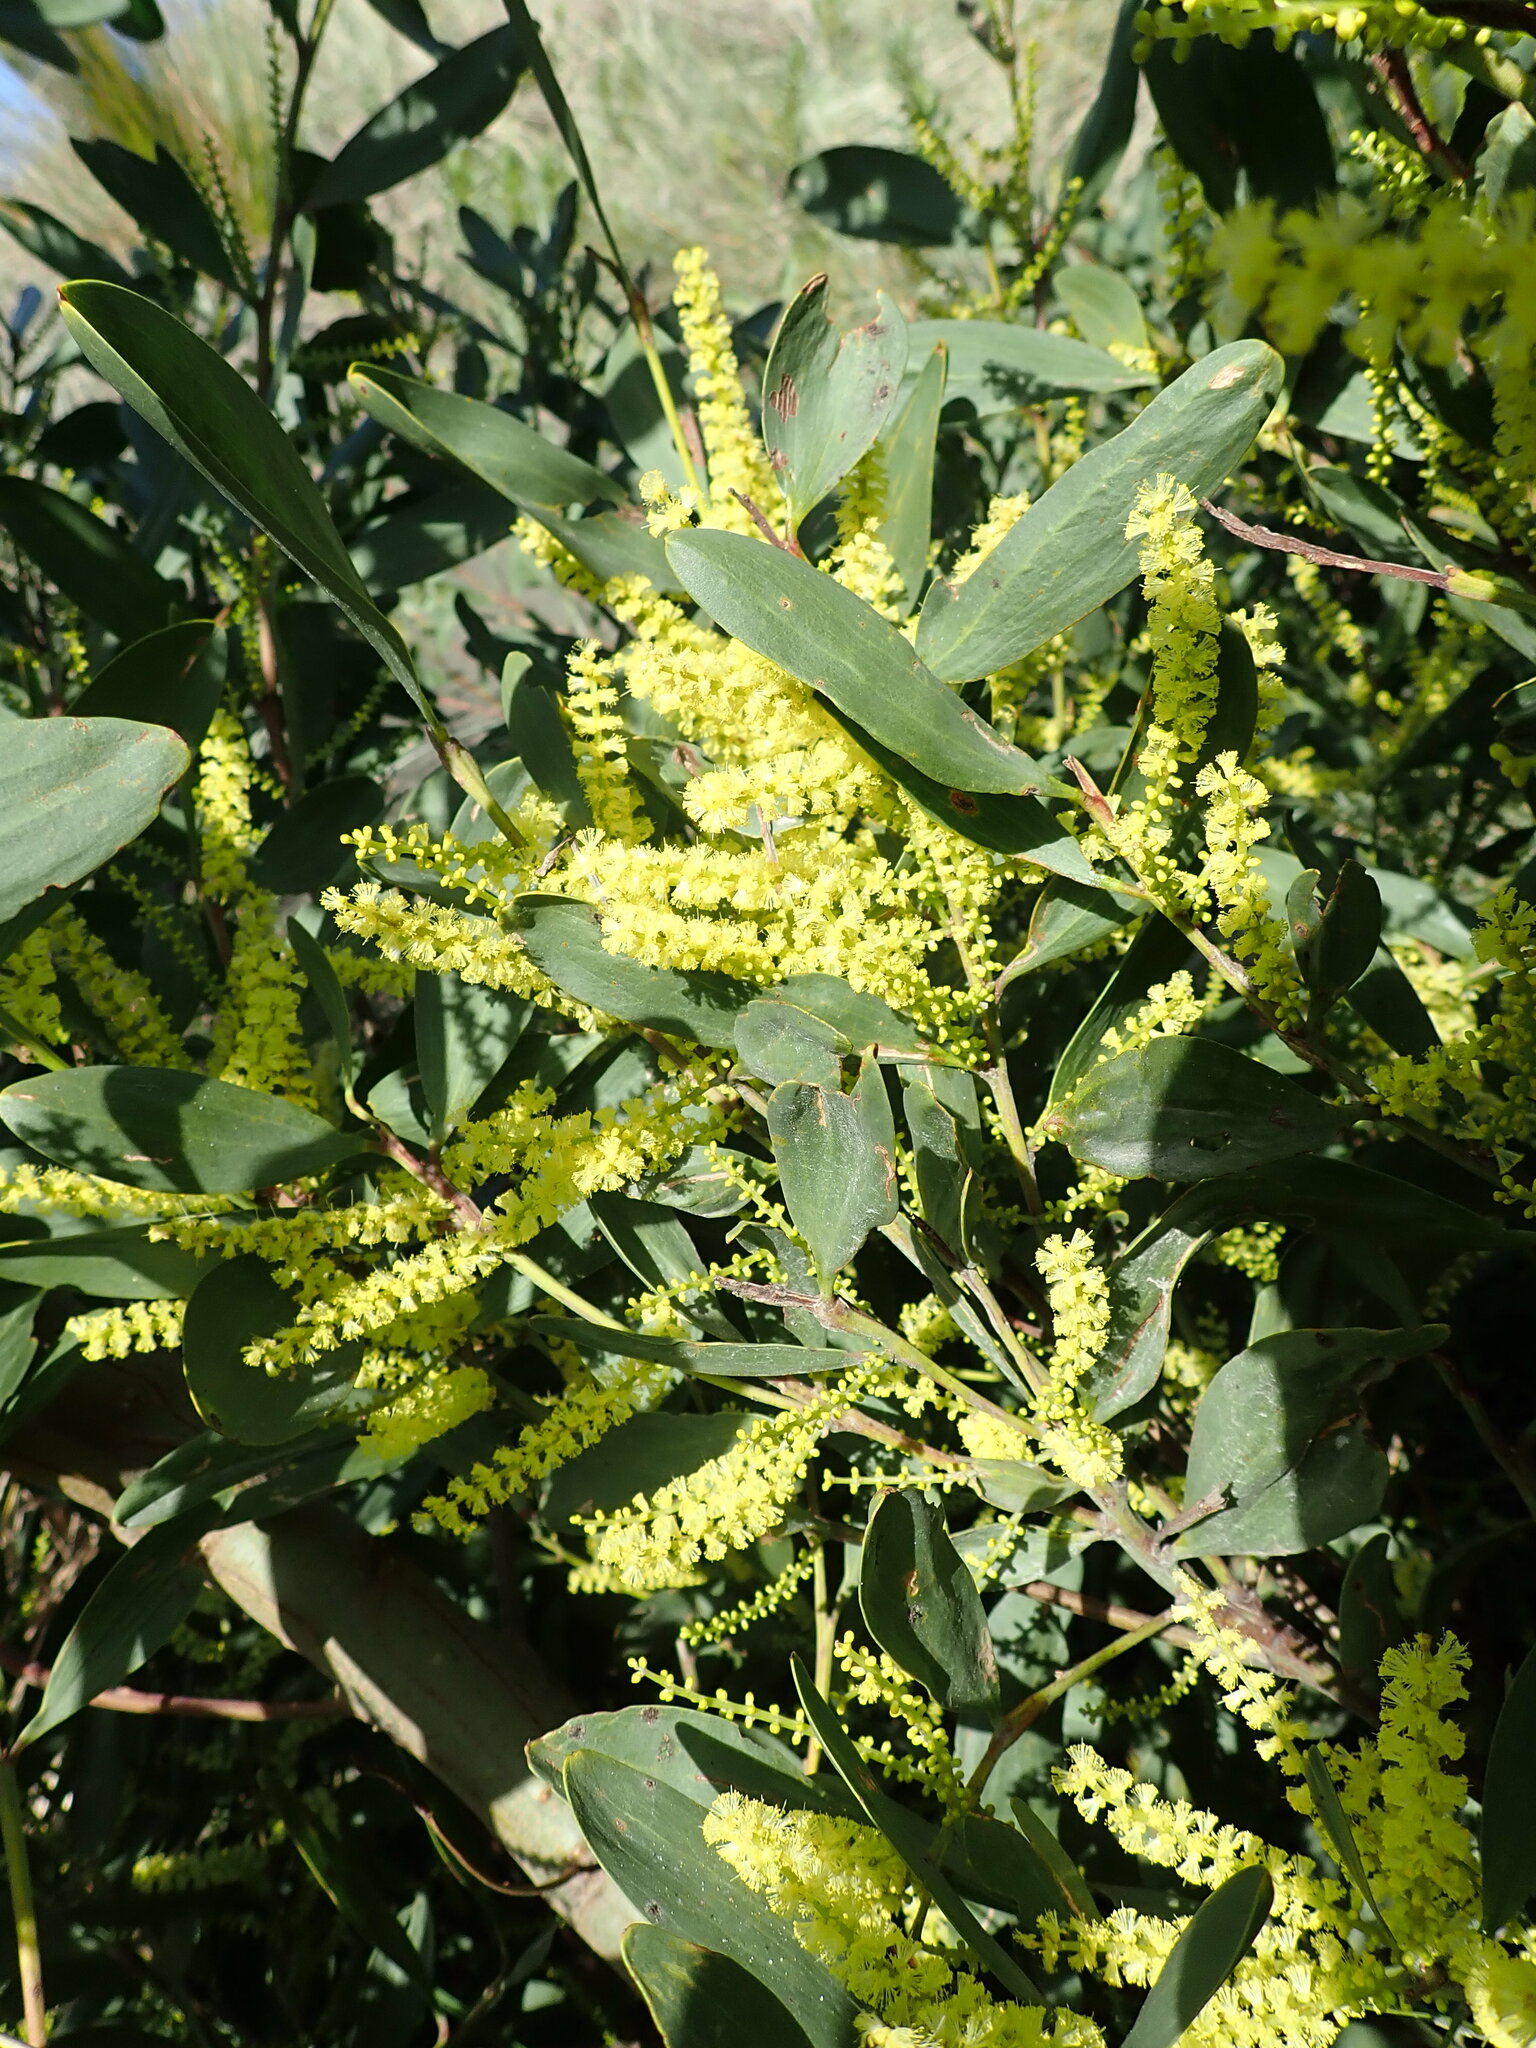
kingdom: Plantae
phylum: Tracheophyta
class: Magnoliopsida
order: Fabales
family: Fabaceae
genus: Acacia
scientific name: Acacia longifolia
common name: Sydney golden wattle
